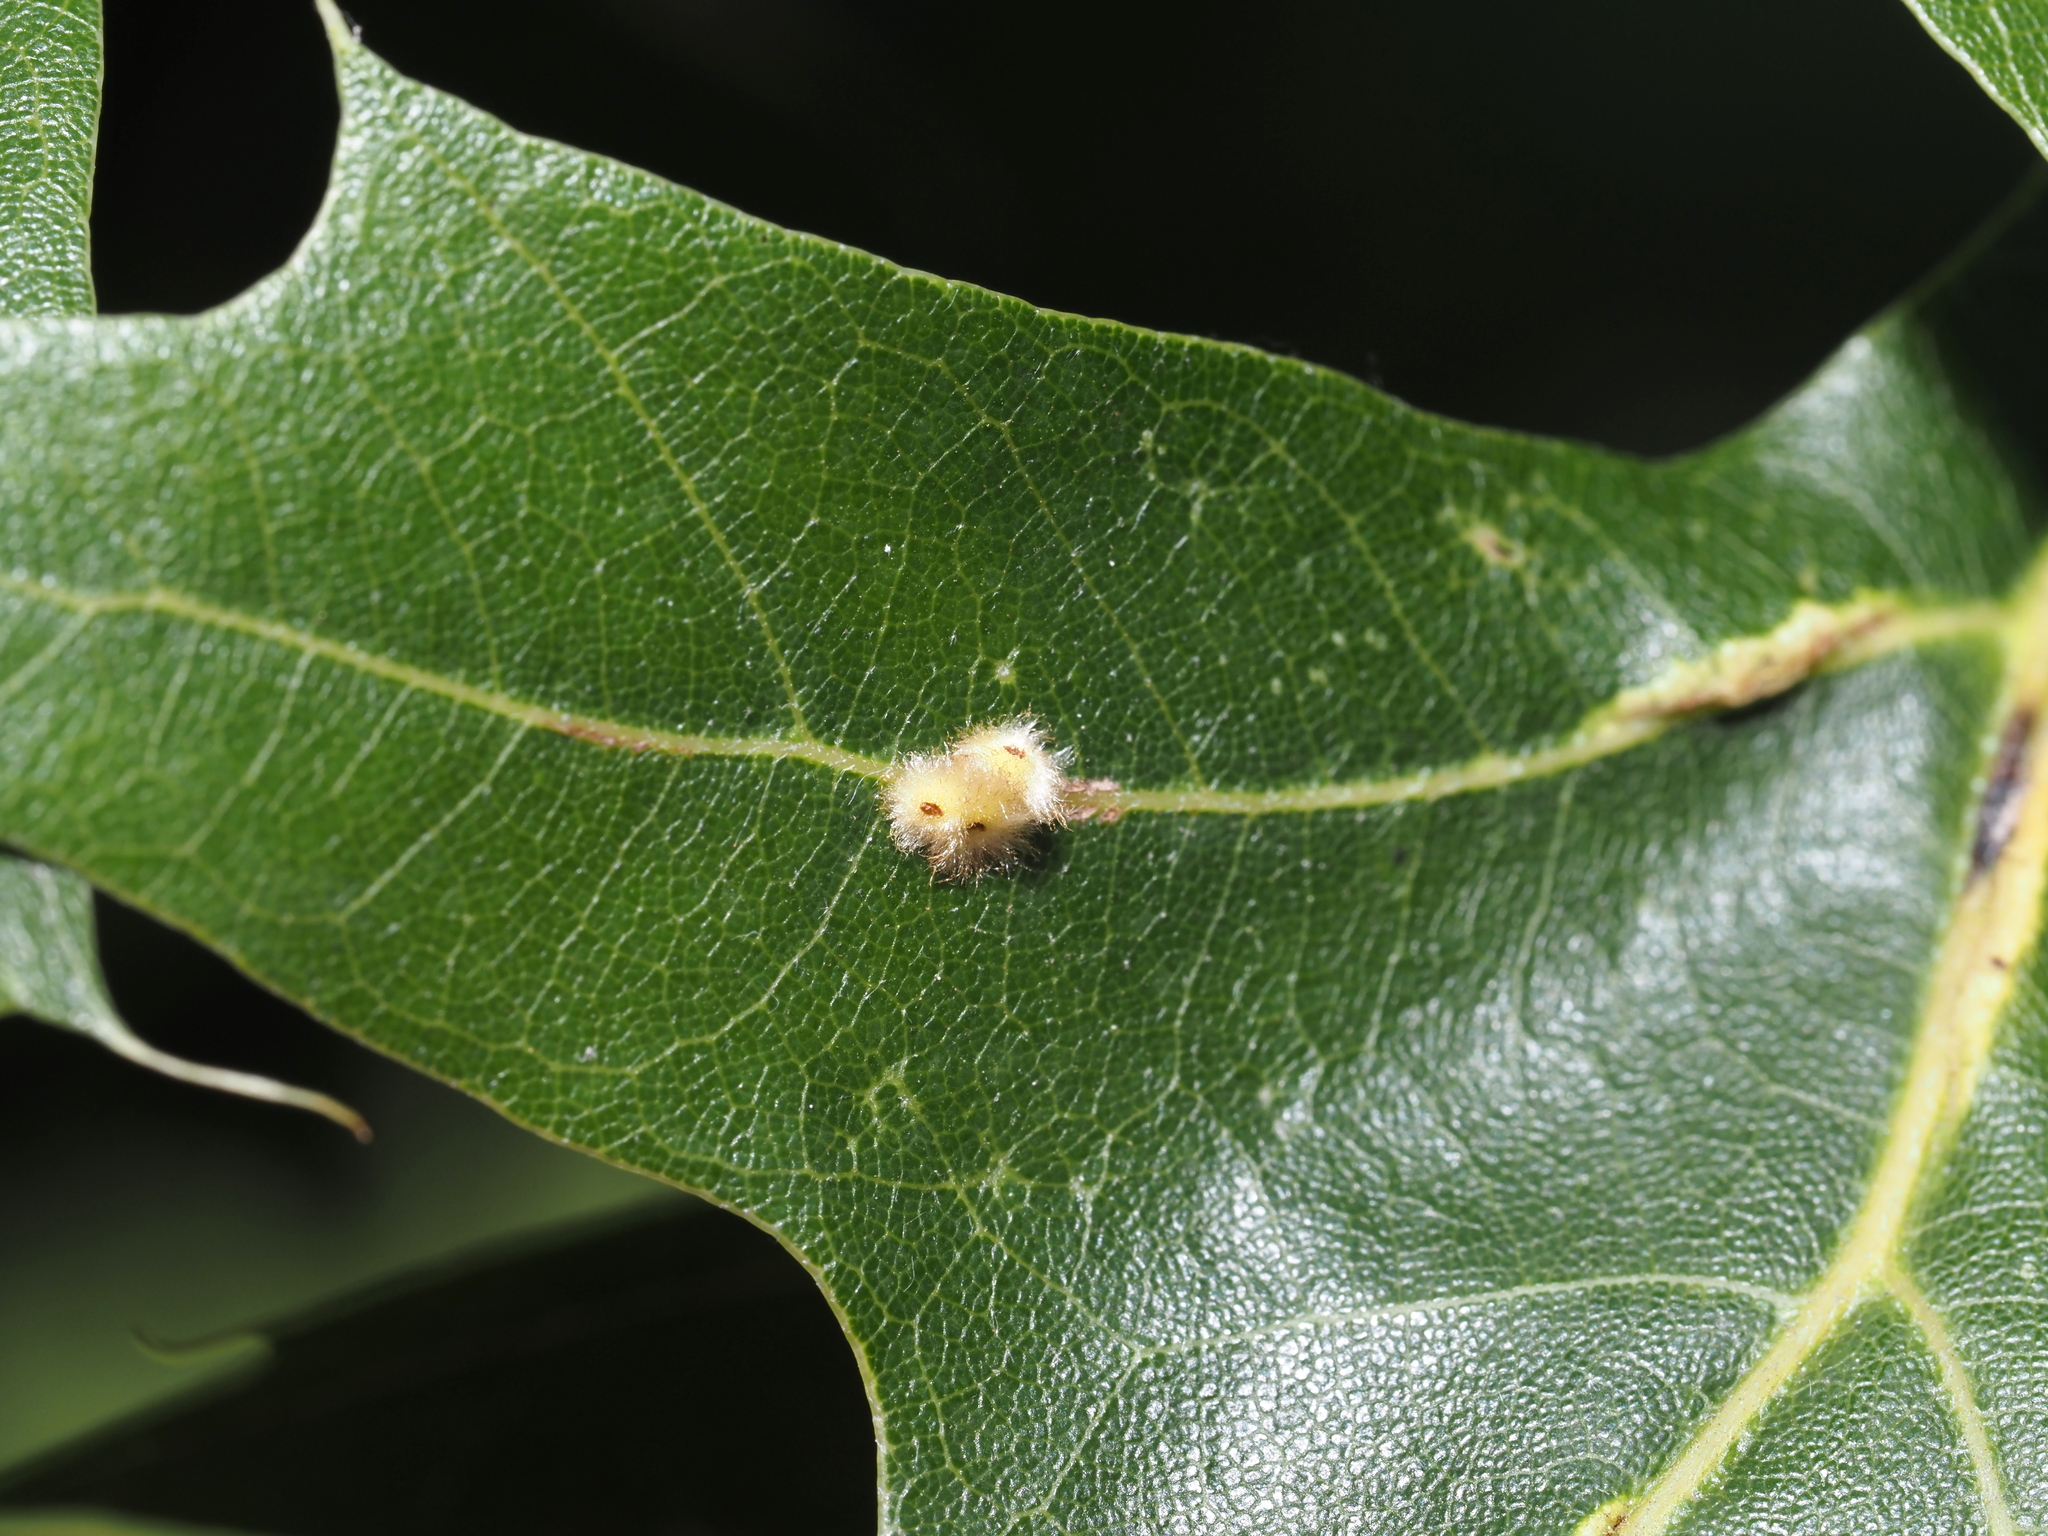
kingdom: Animalia
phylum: Arthropoda
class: Insecta
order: Hymenoptera
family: Cynipidae
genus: Callirhytis
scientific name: Callirhytis
